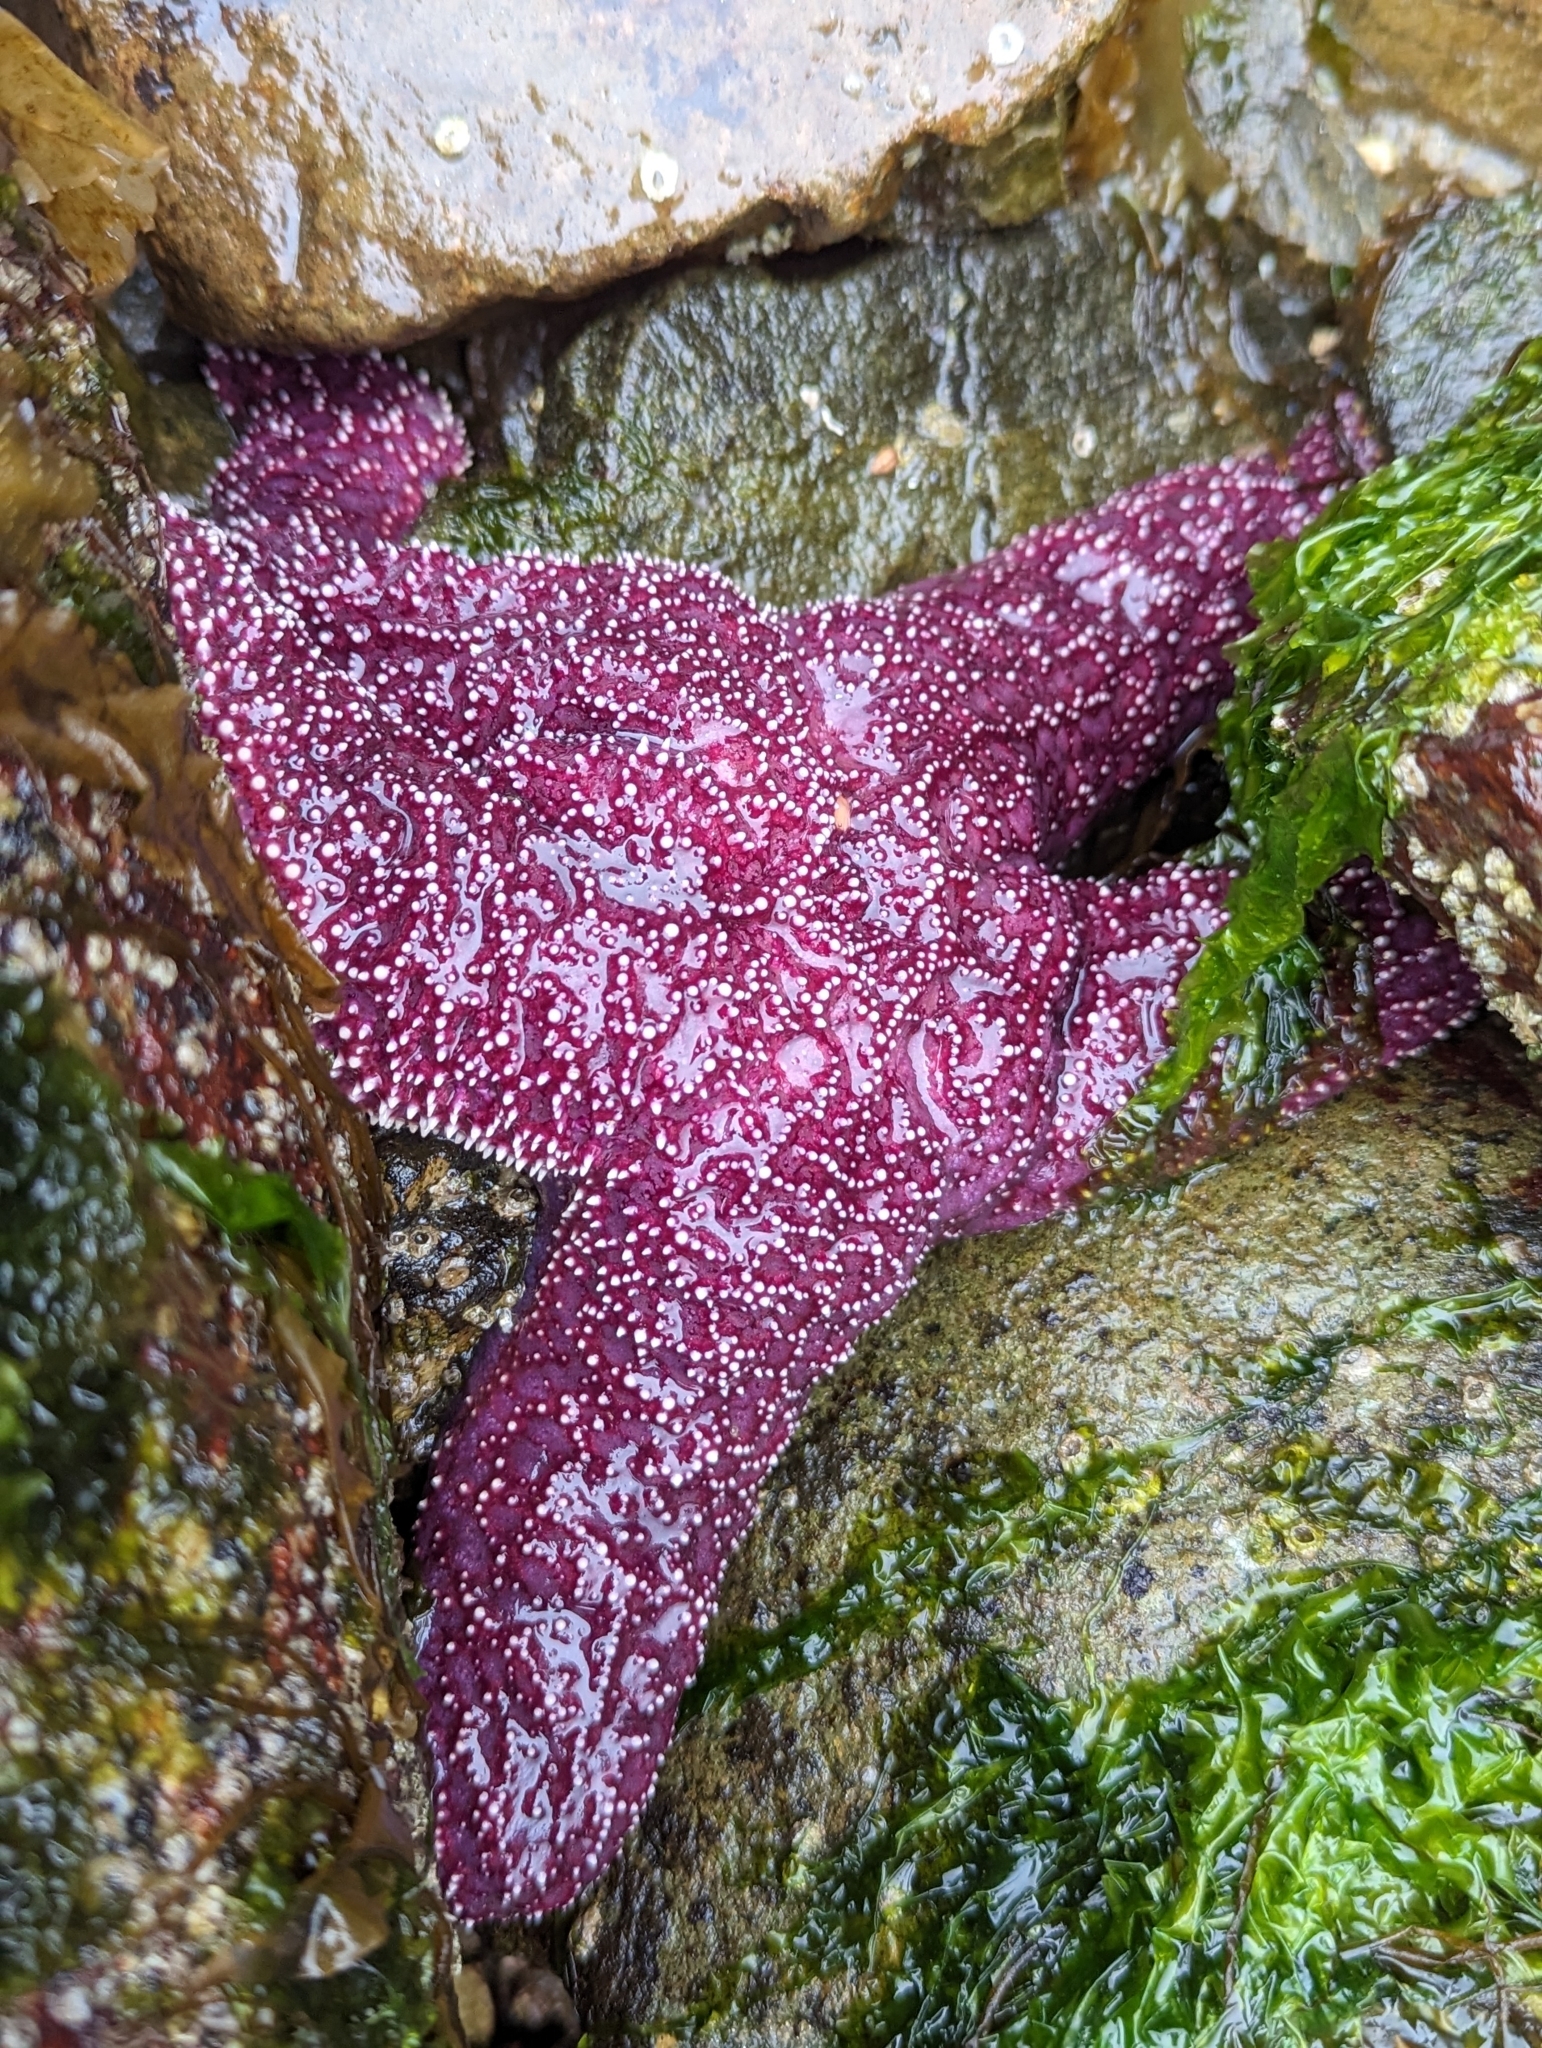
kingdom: Animalia
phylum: Echinodermata
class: Asteroidea
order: Forcipulatida
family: Asteriidae
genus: Pisaster
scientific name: Pisaster ochraceus
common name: Ochre stars
